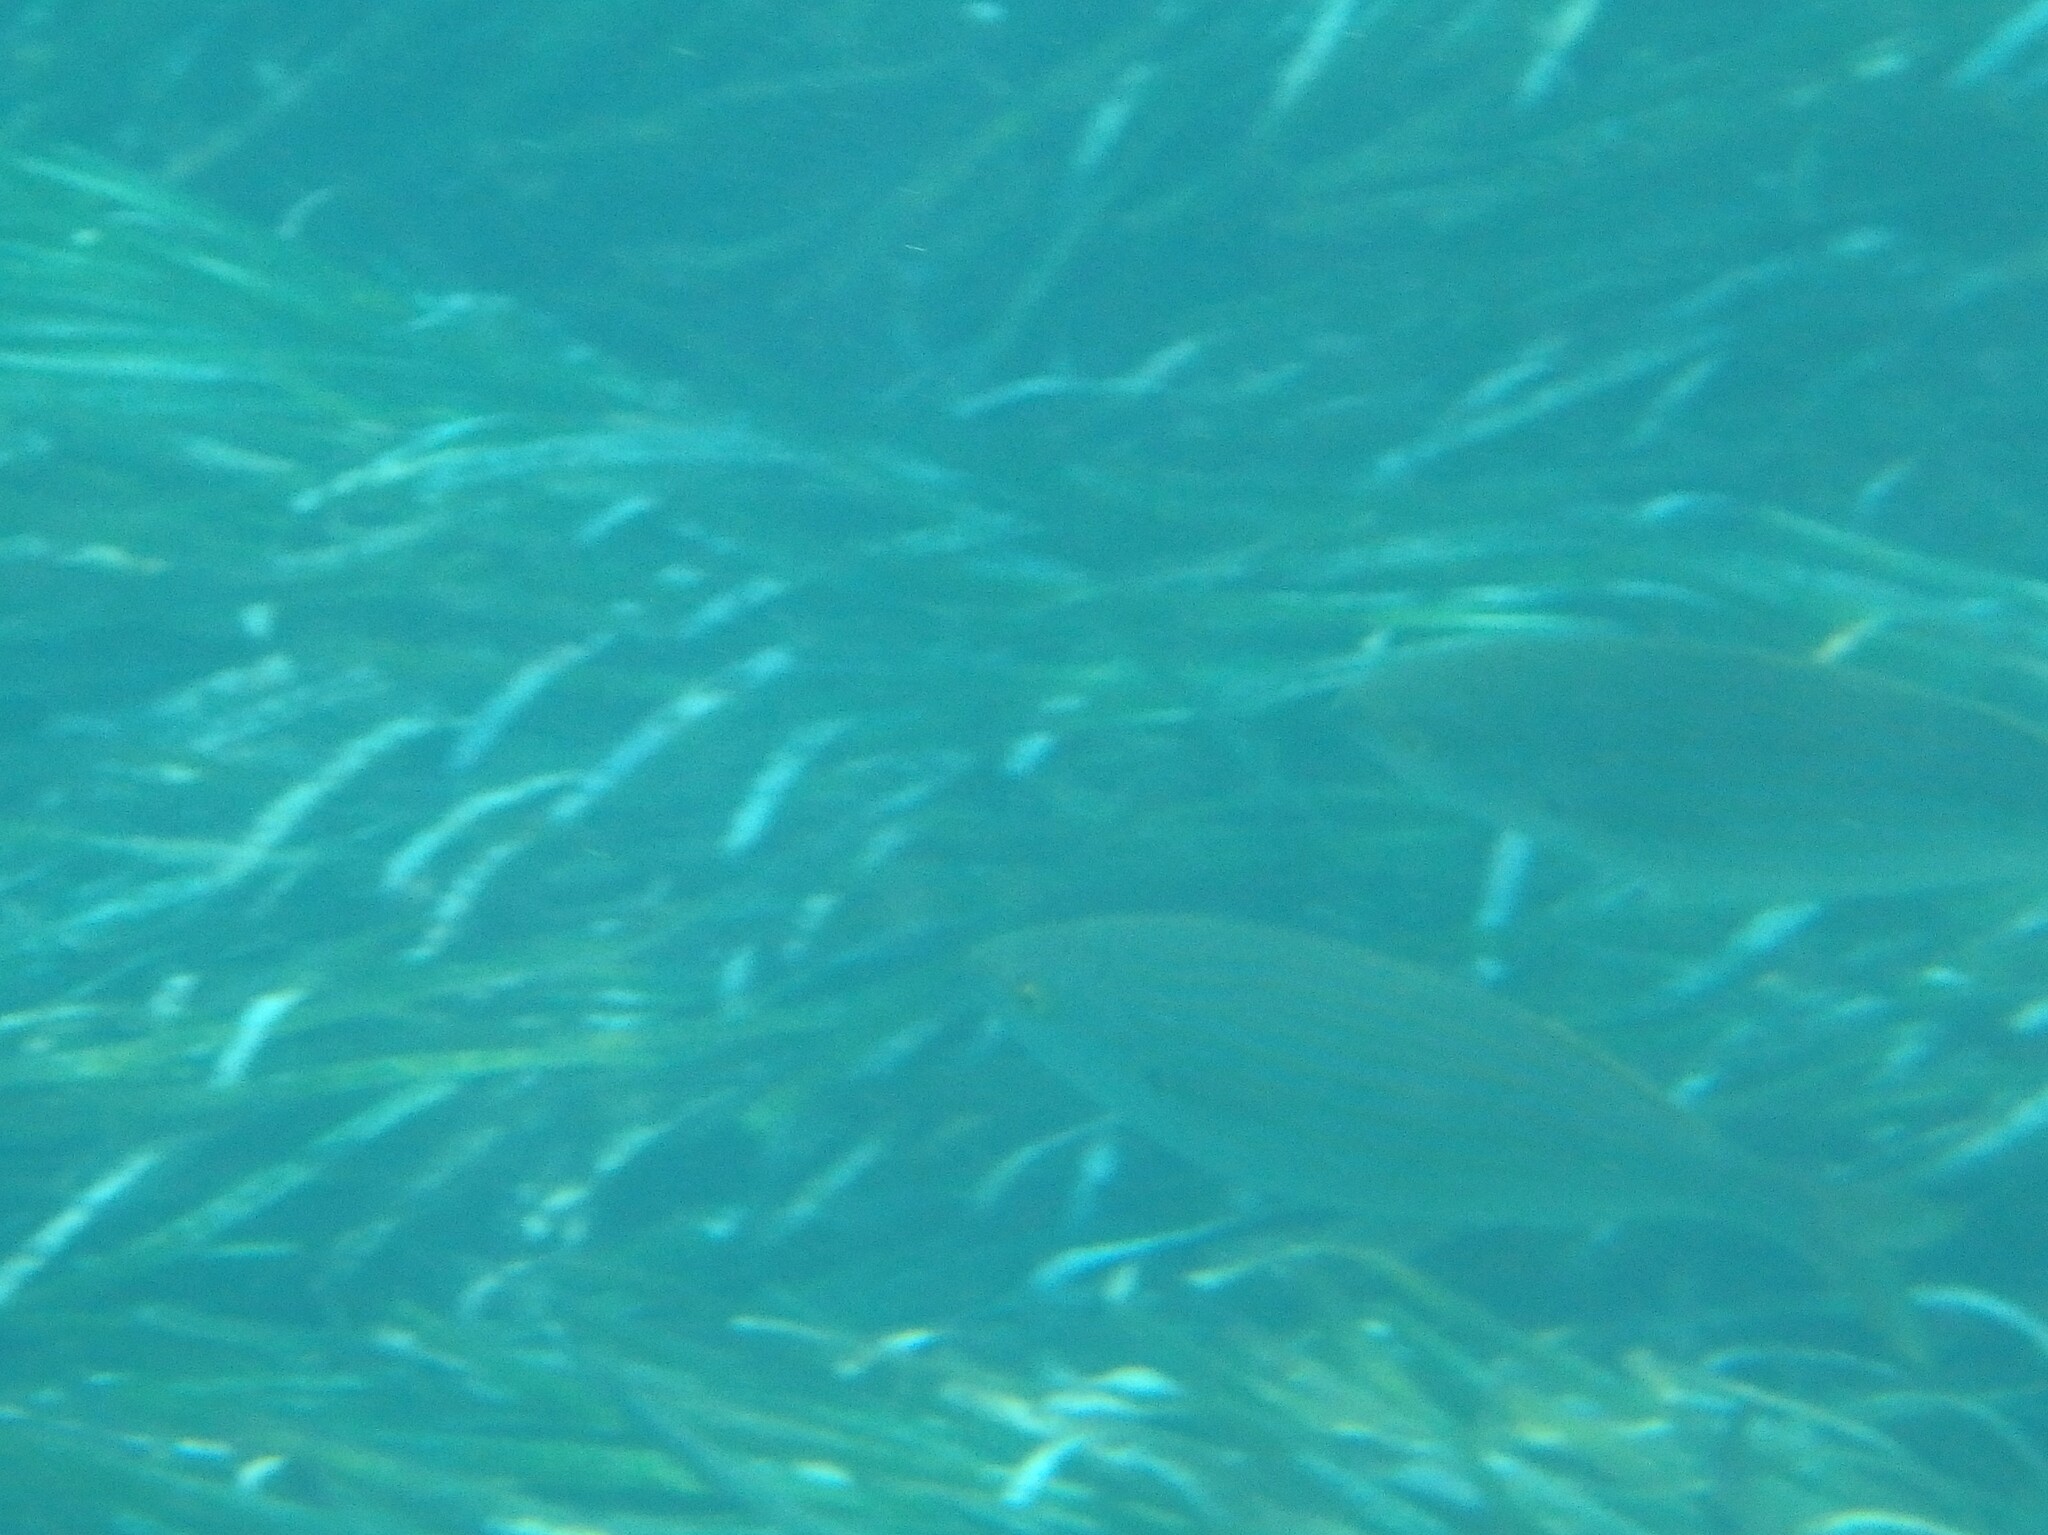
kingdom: Animalia
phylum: Chordata
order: Perciformes
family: Sparidae
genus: Sarpa
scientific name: Sarpa salpa
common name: Salema
